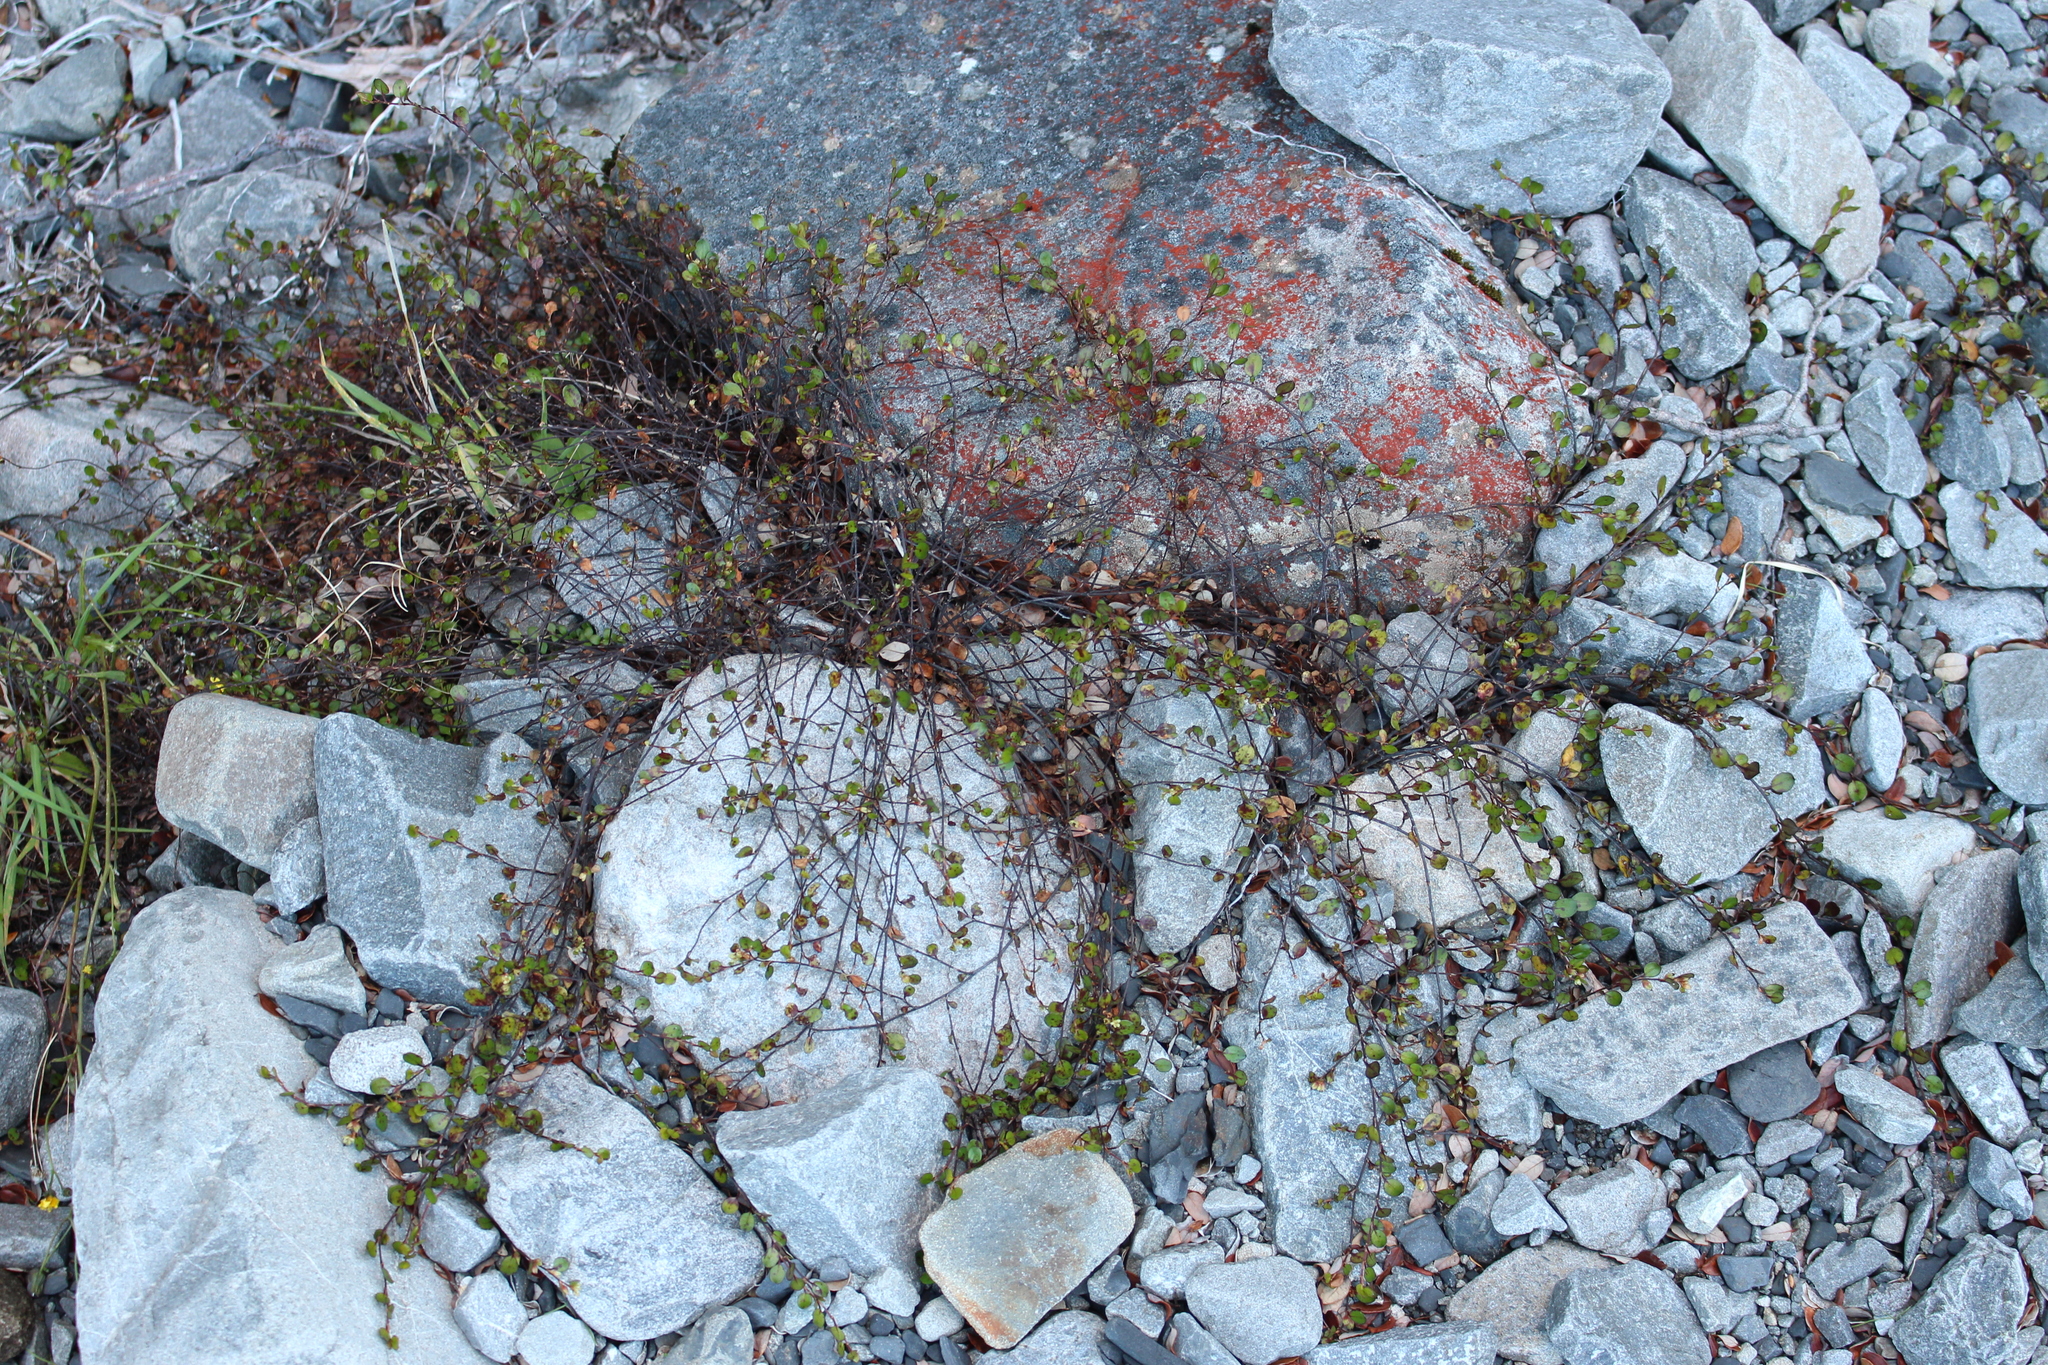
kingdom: Plantae
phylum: Tracheophyta
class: Magnoliopsida
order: Caryophyllales
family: Polygonaceae
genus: Muehlenbeckia
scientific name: Muehlenbeckia axillaris
